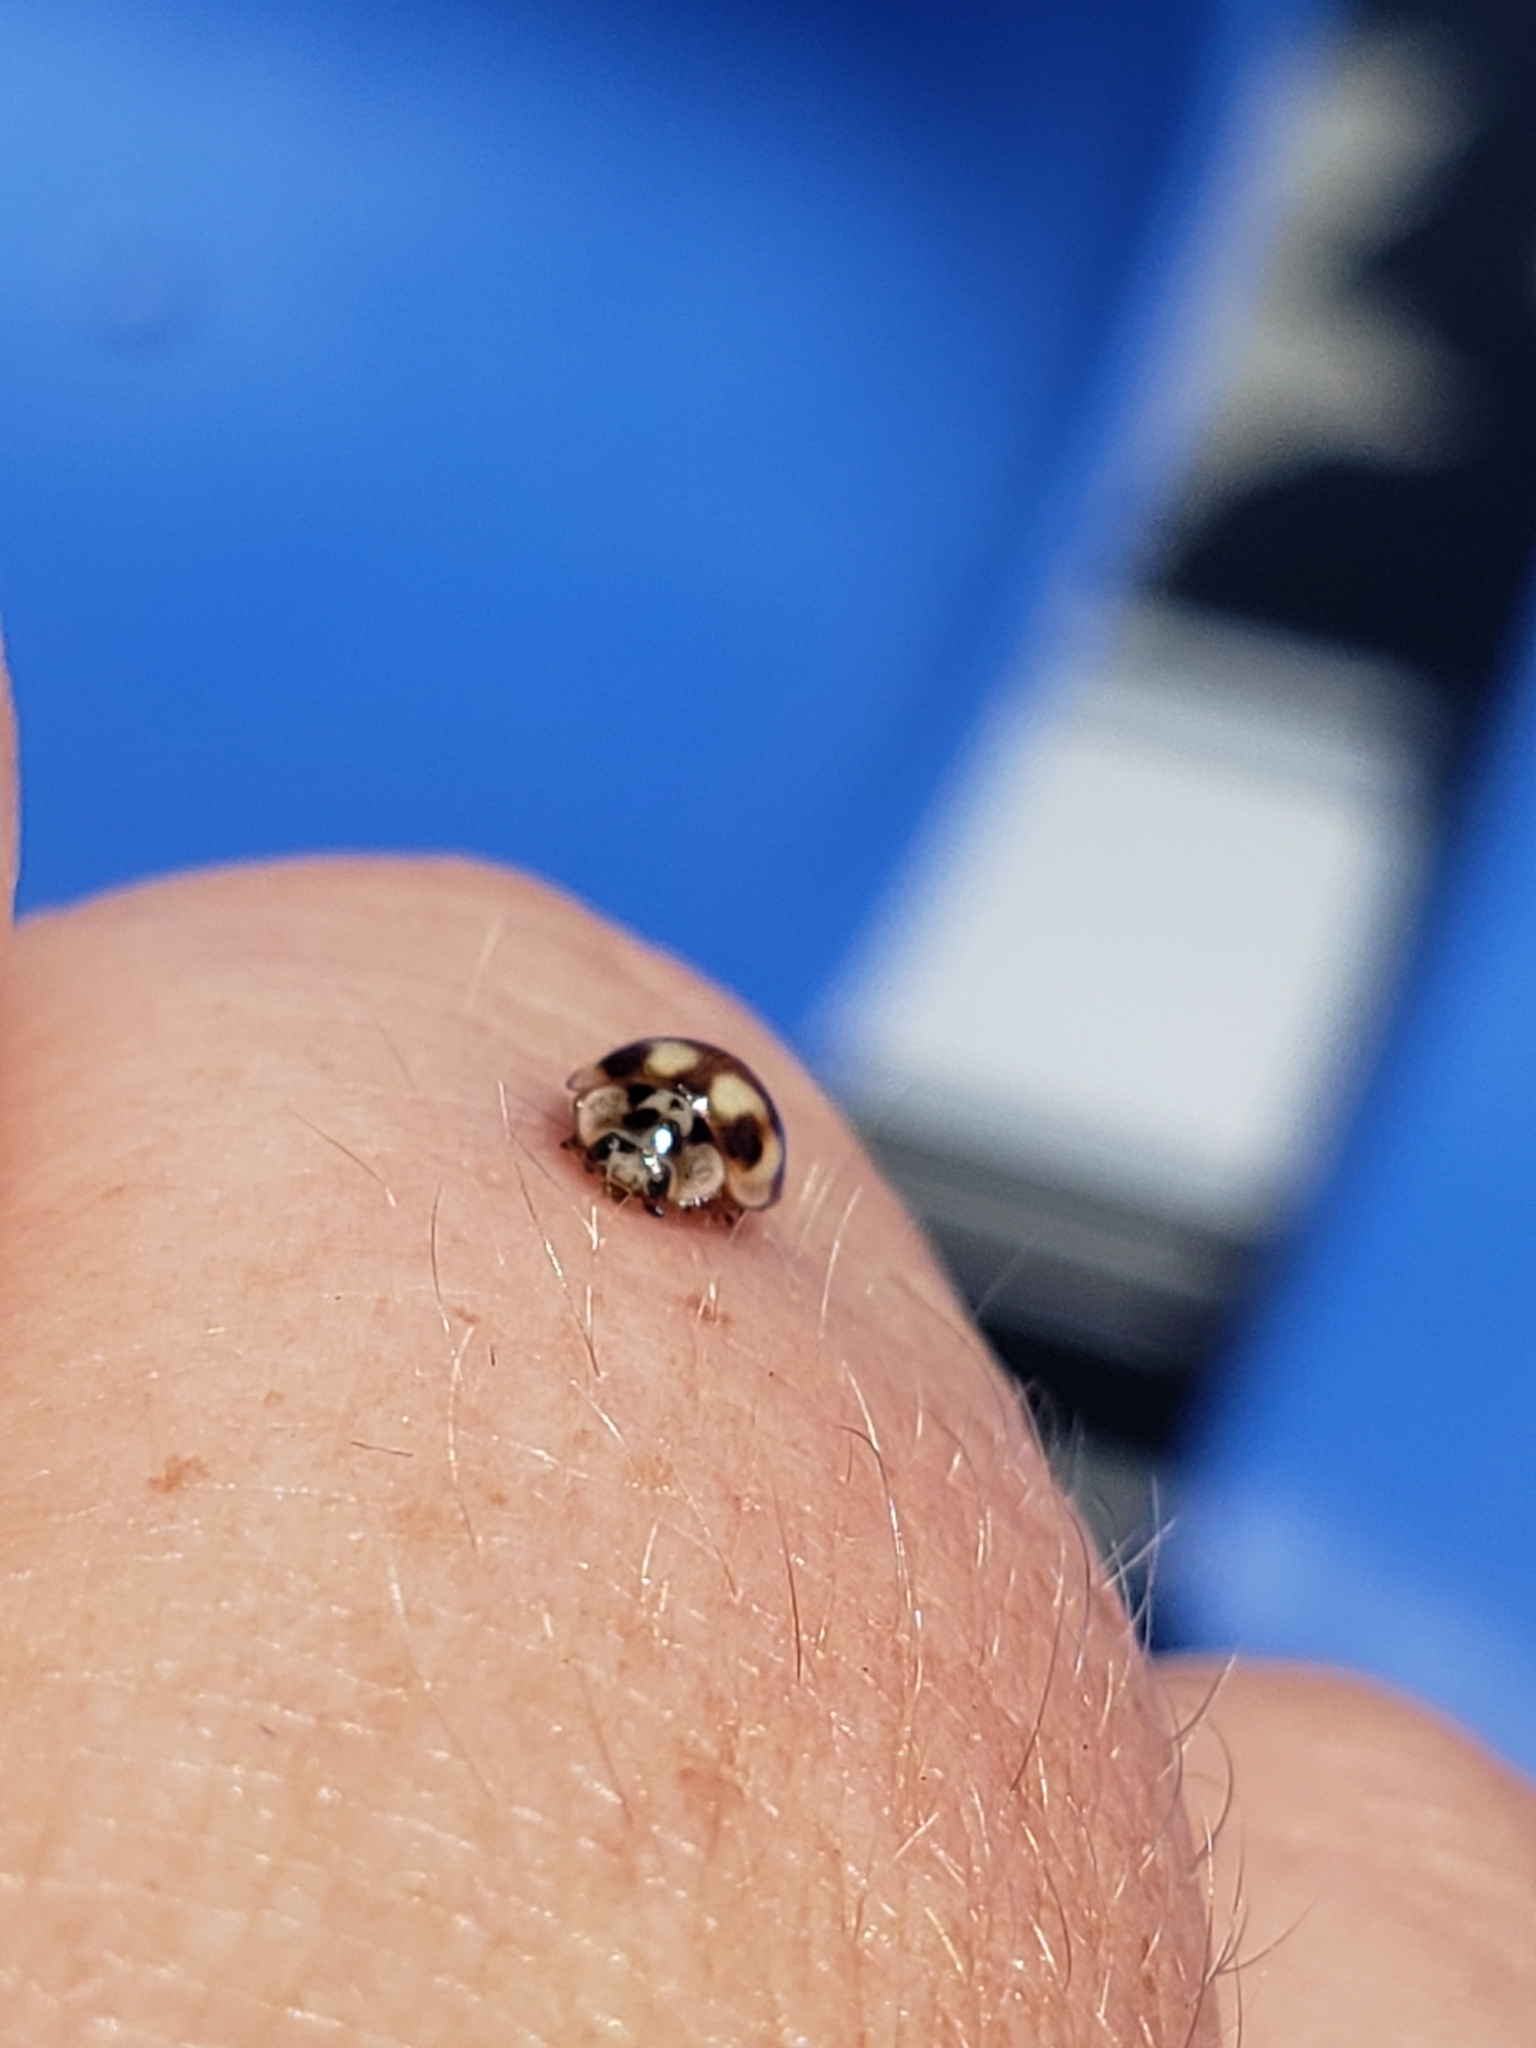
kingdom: Animalia
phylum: Arthropoda
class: Insecta
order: Coleoptera
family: Coccinellidae
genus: Adalia
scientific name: Adalia decempunctata
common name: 10-spot ladybird
